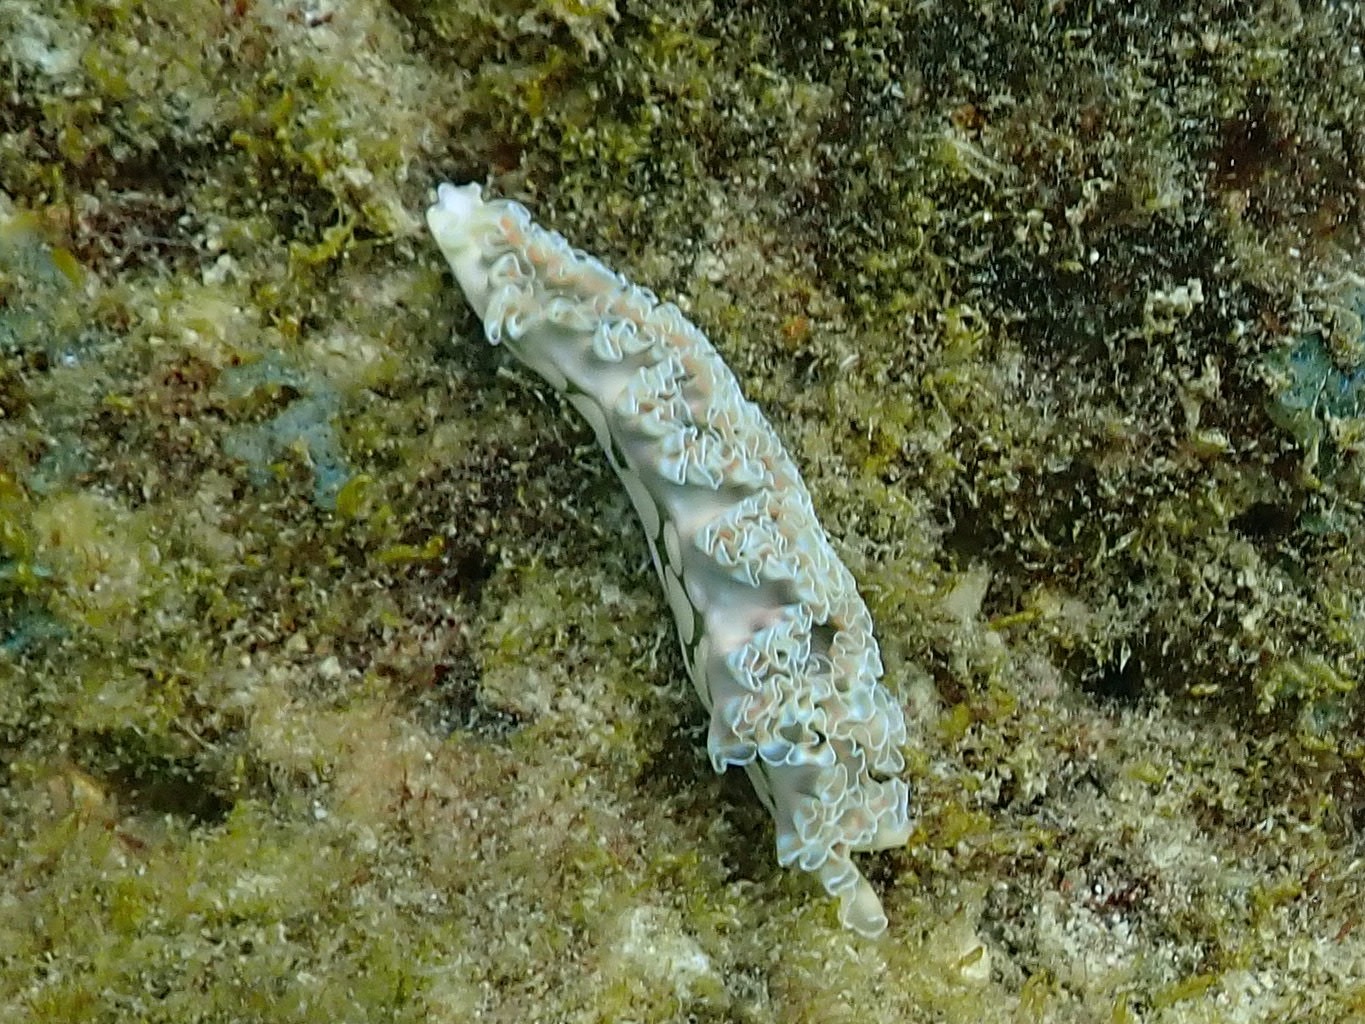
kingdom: Animalia
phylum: Mollusca
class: Gastropoda
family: Plakobranchidae
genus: Elysia
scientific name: Elysia crispata
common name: Lettuce slug
